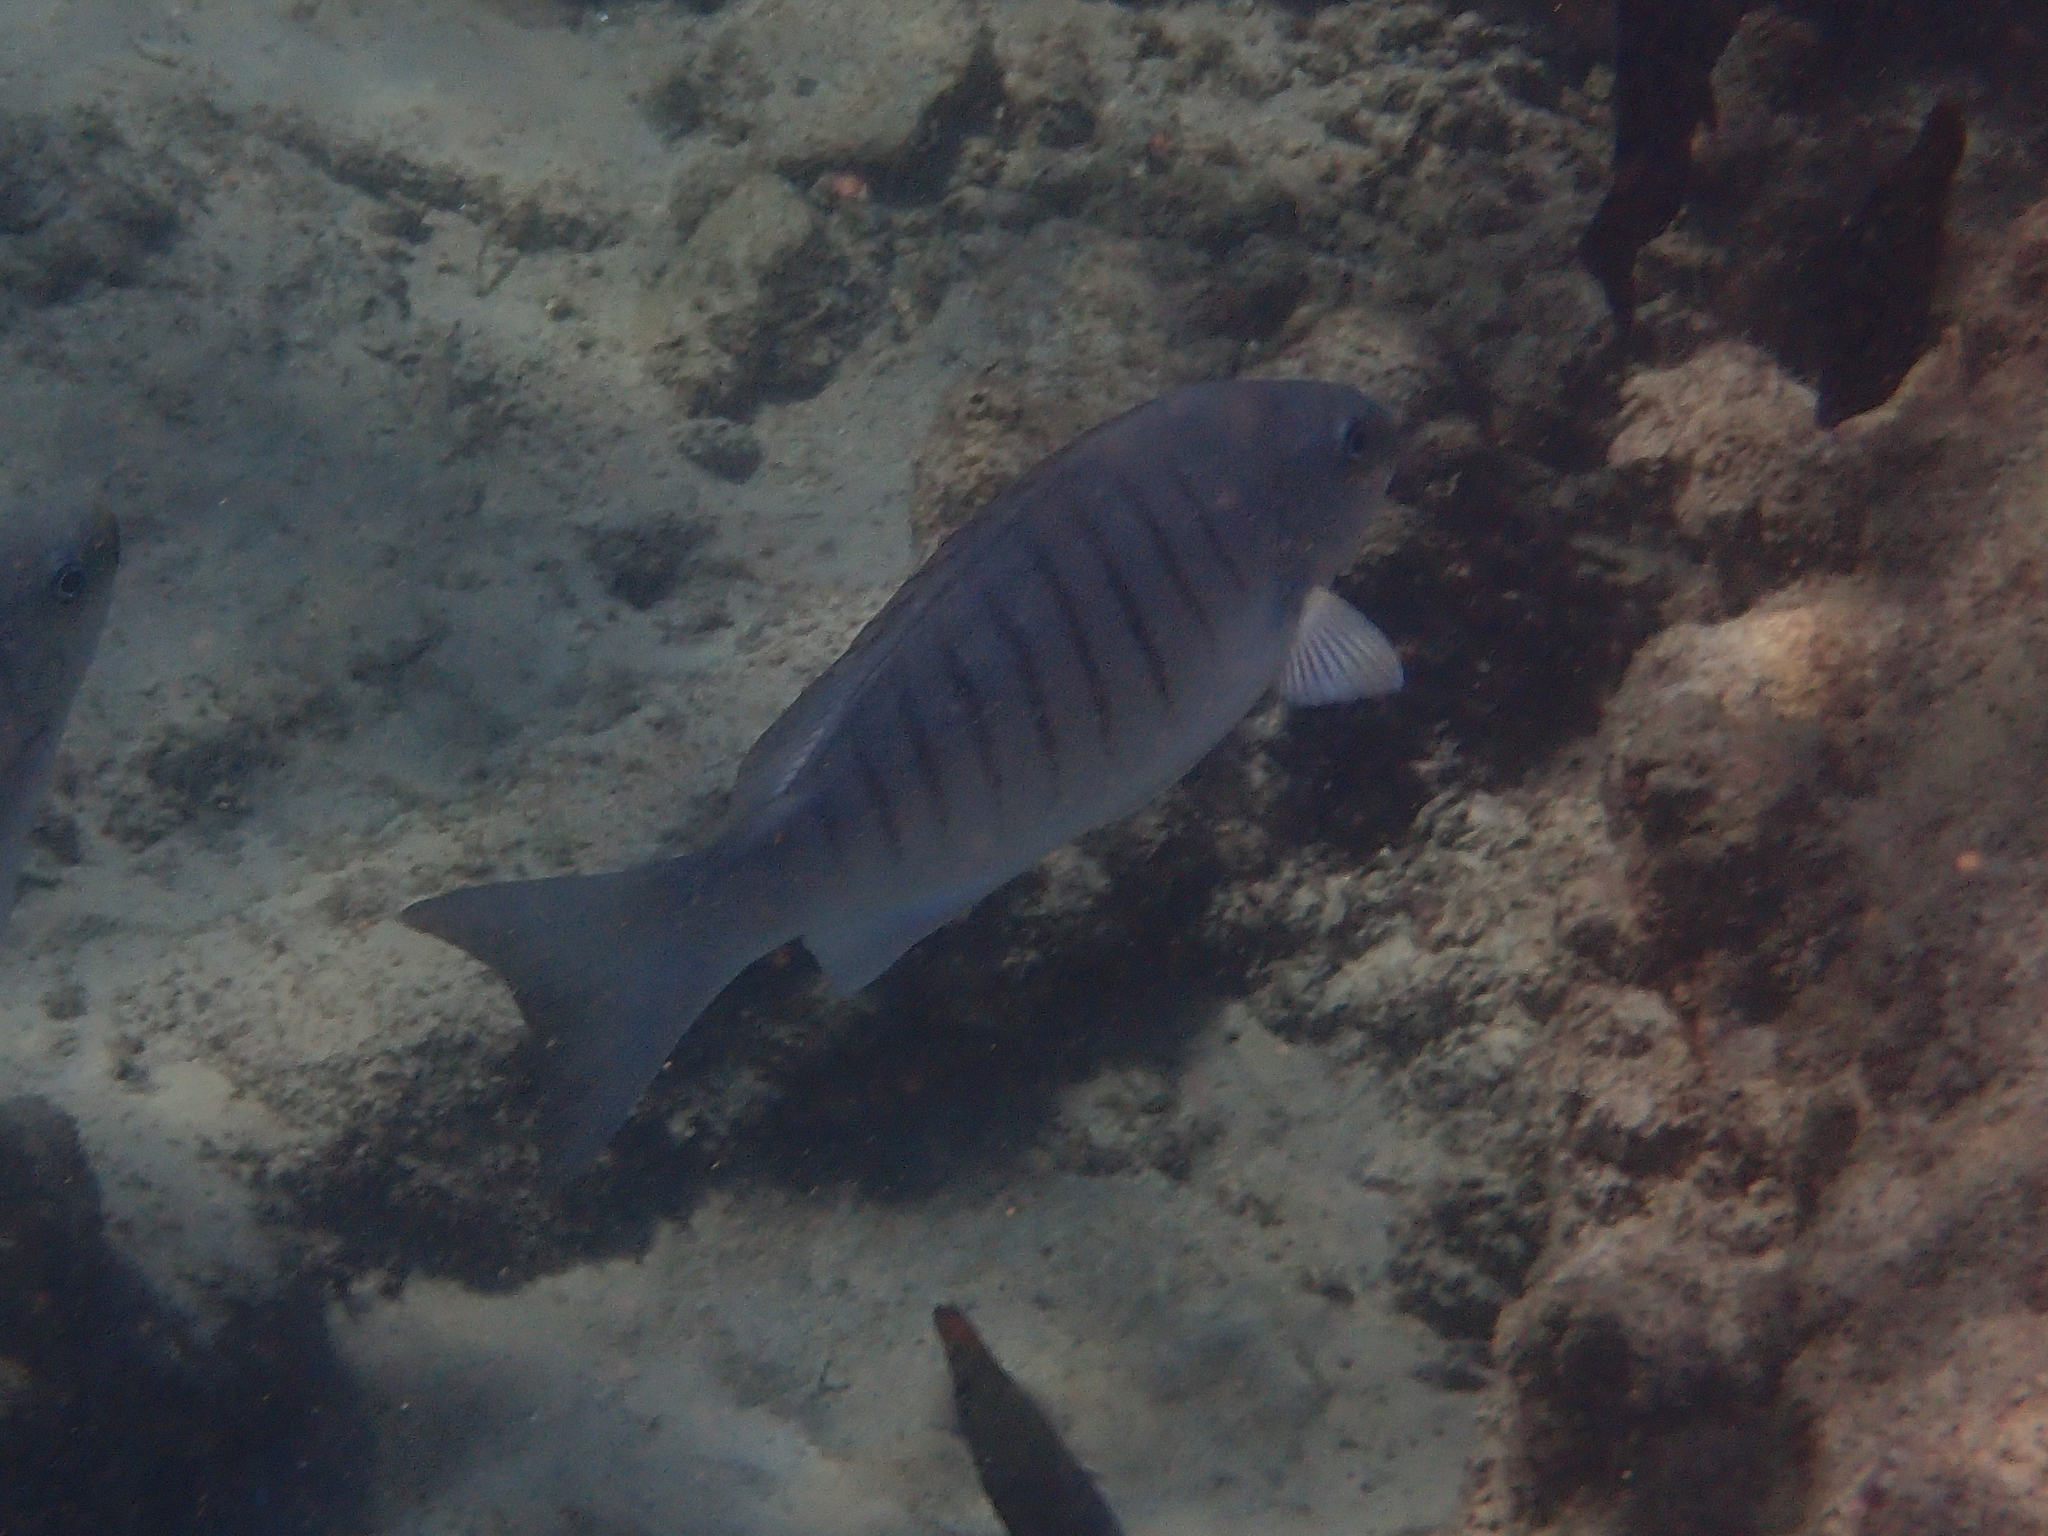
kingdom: Animalia
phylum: Chordata
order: Perciformes
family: Kyphosidae
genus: Girella
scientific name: Girella tricuspidata
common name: Parore
